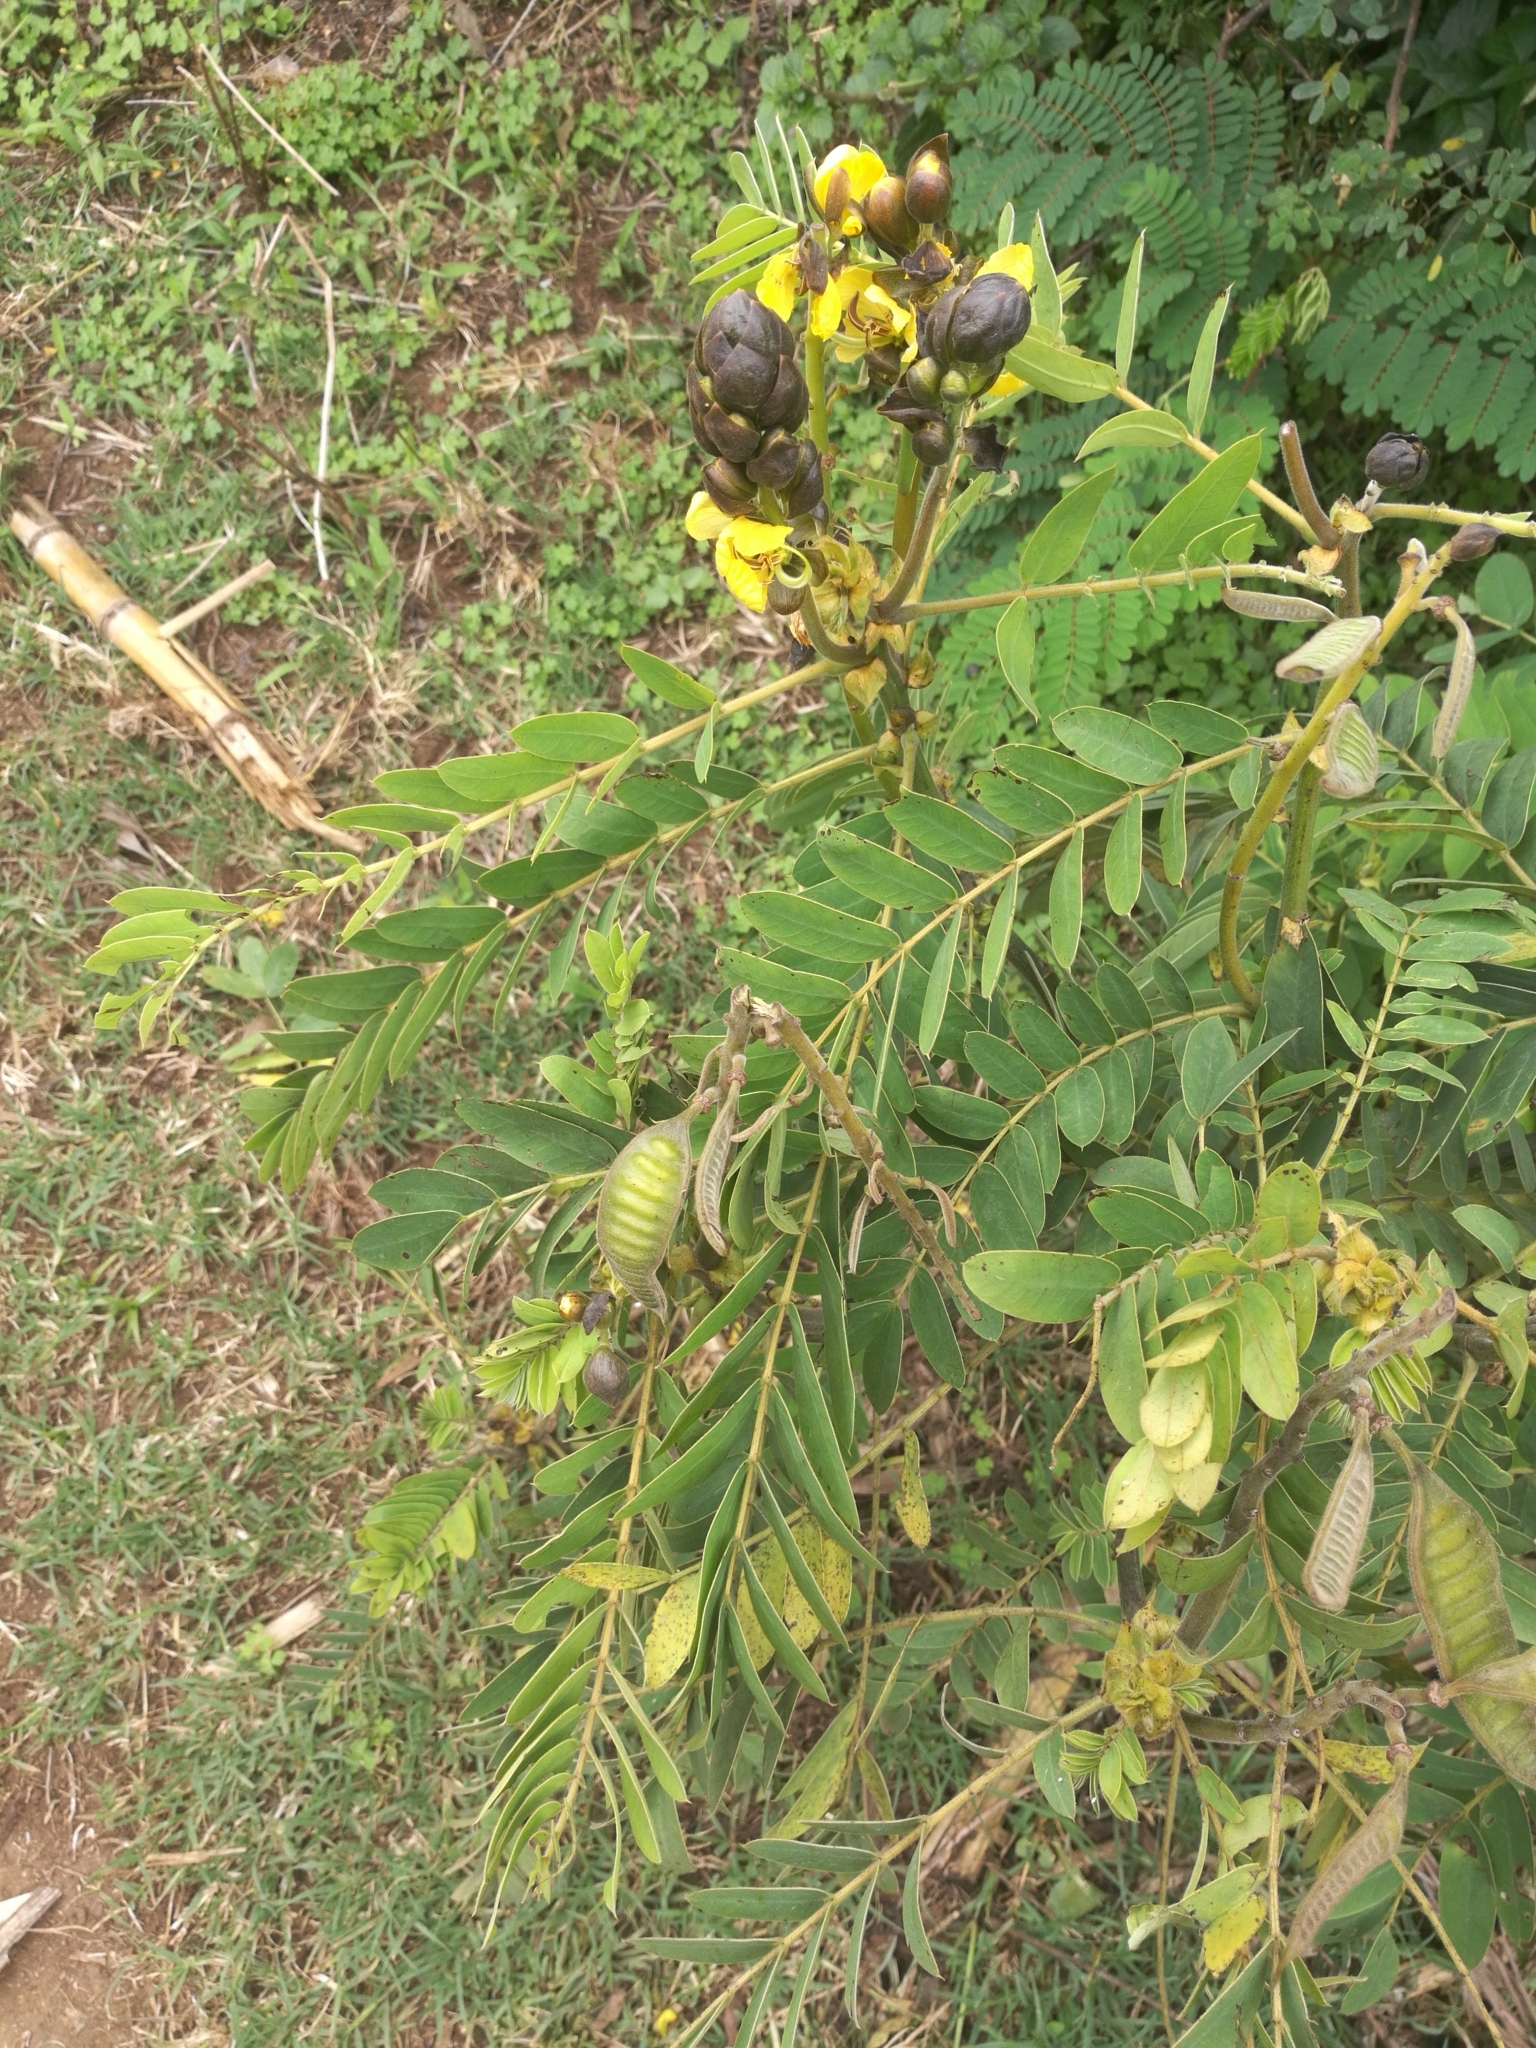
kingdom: Plantae
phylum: Tracheophyta
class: Magnoliopsida
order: Fabales
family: Fabaceae
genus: Senna
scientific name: Senna didymobotrya
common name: African senna
